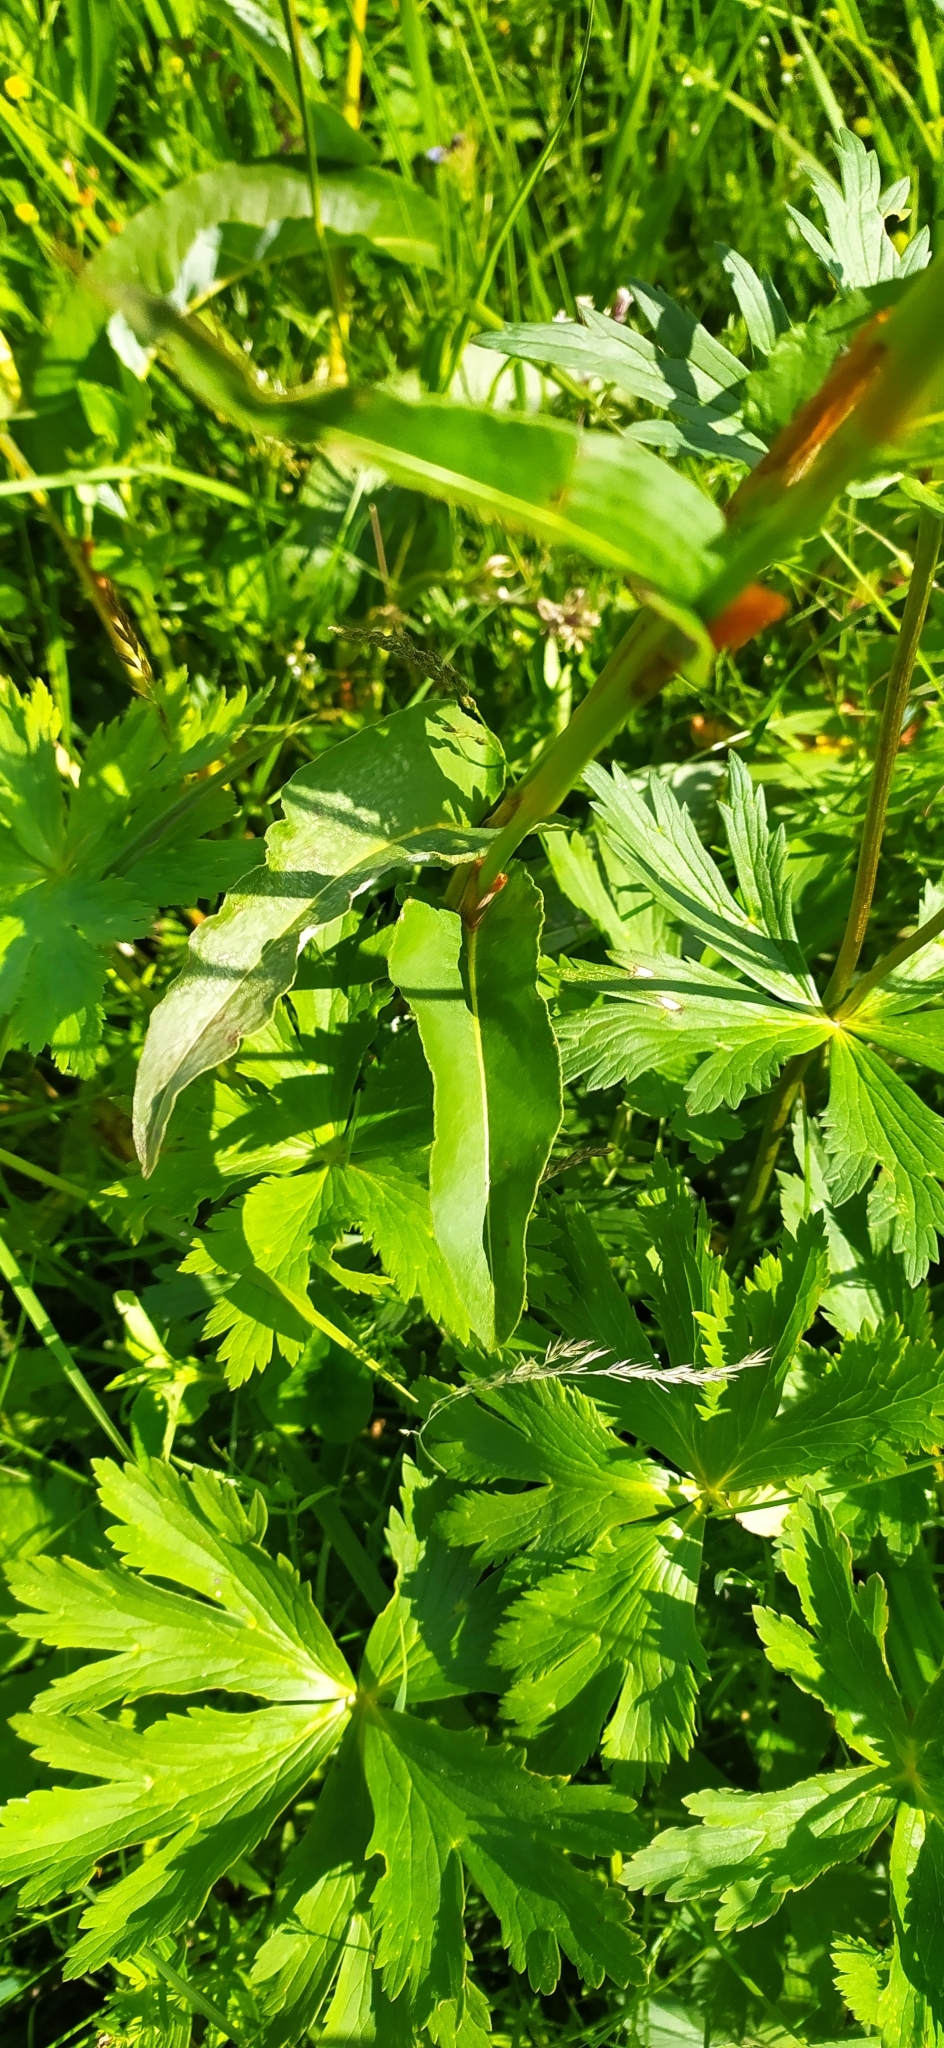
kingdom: Plantae
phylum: Tracheophyta
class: Magnoliopsida
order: Caryophyllales
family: Polygonaceae
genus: Bistorta
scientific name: Bistorta officinalis
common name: Common bistort
